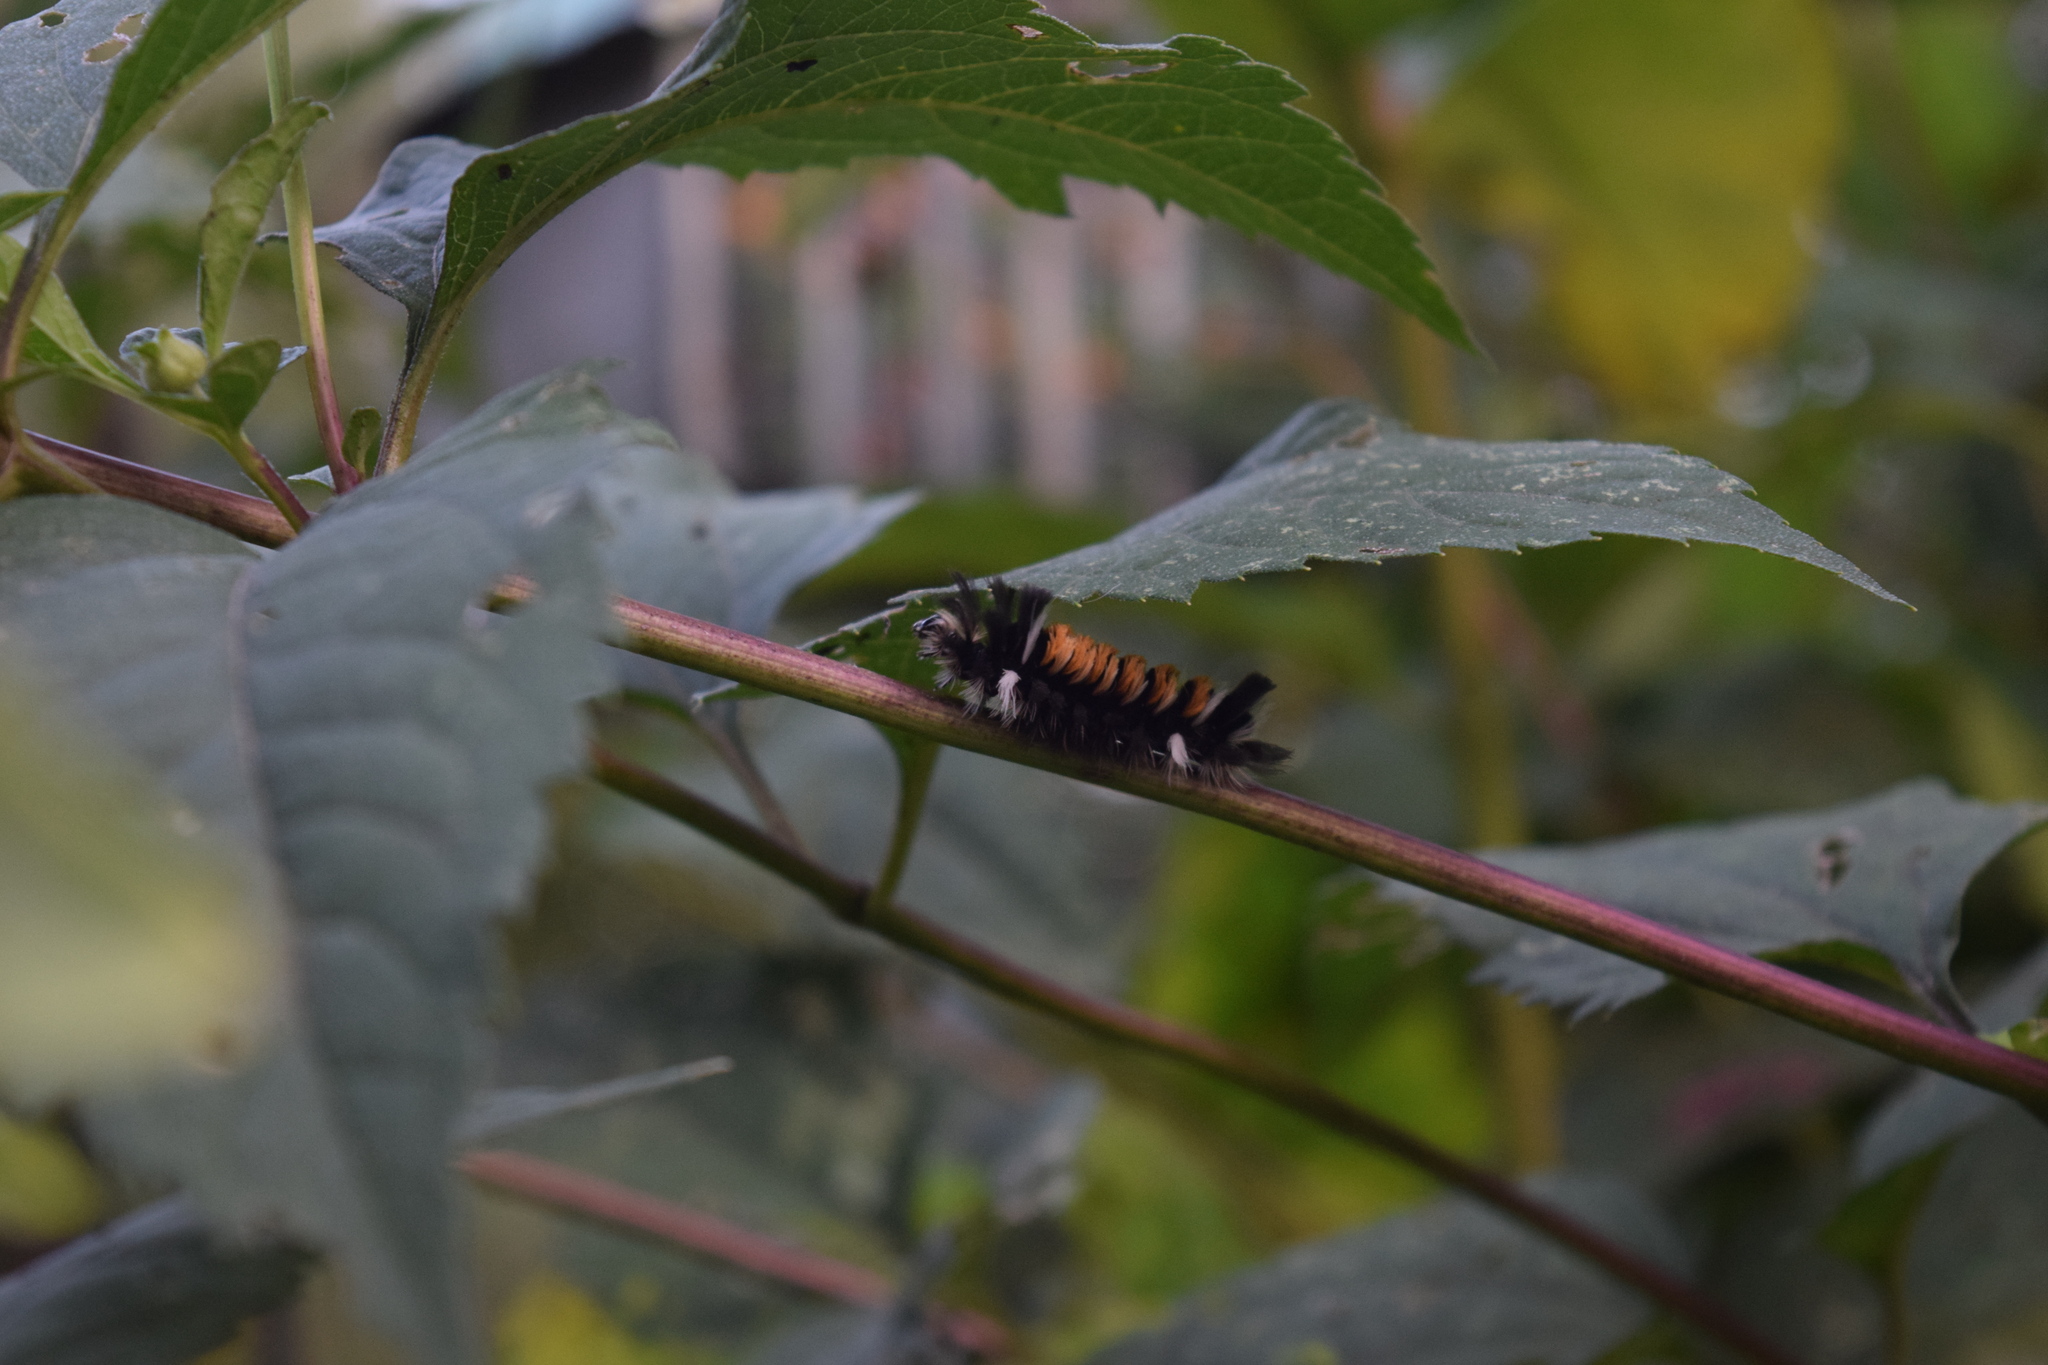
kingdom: Animalia
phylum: Arthropoda
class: Insecta
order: Lepidoptera
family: Erebidae
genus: Euchaetes
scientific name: Euchaetes egle
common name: Milkweed tussock moth
